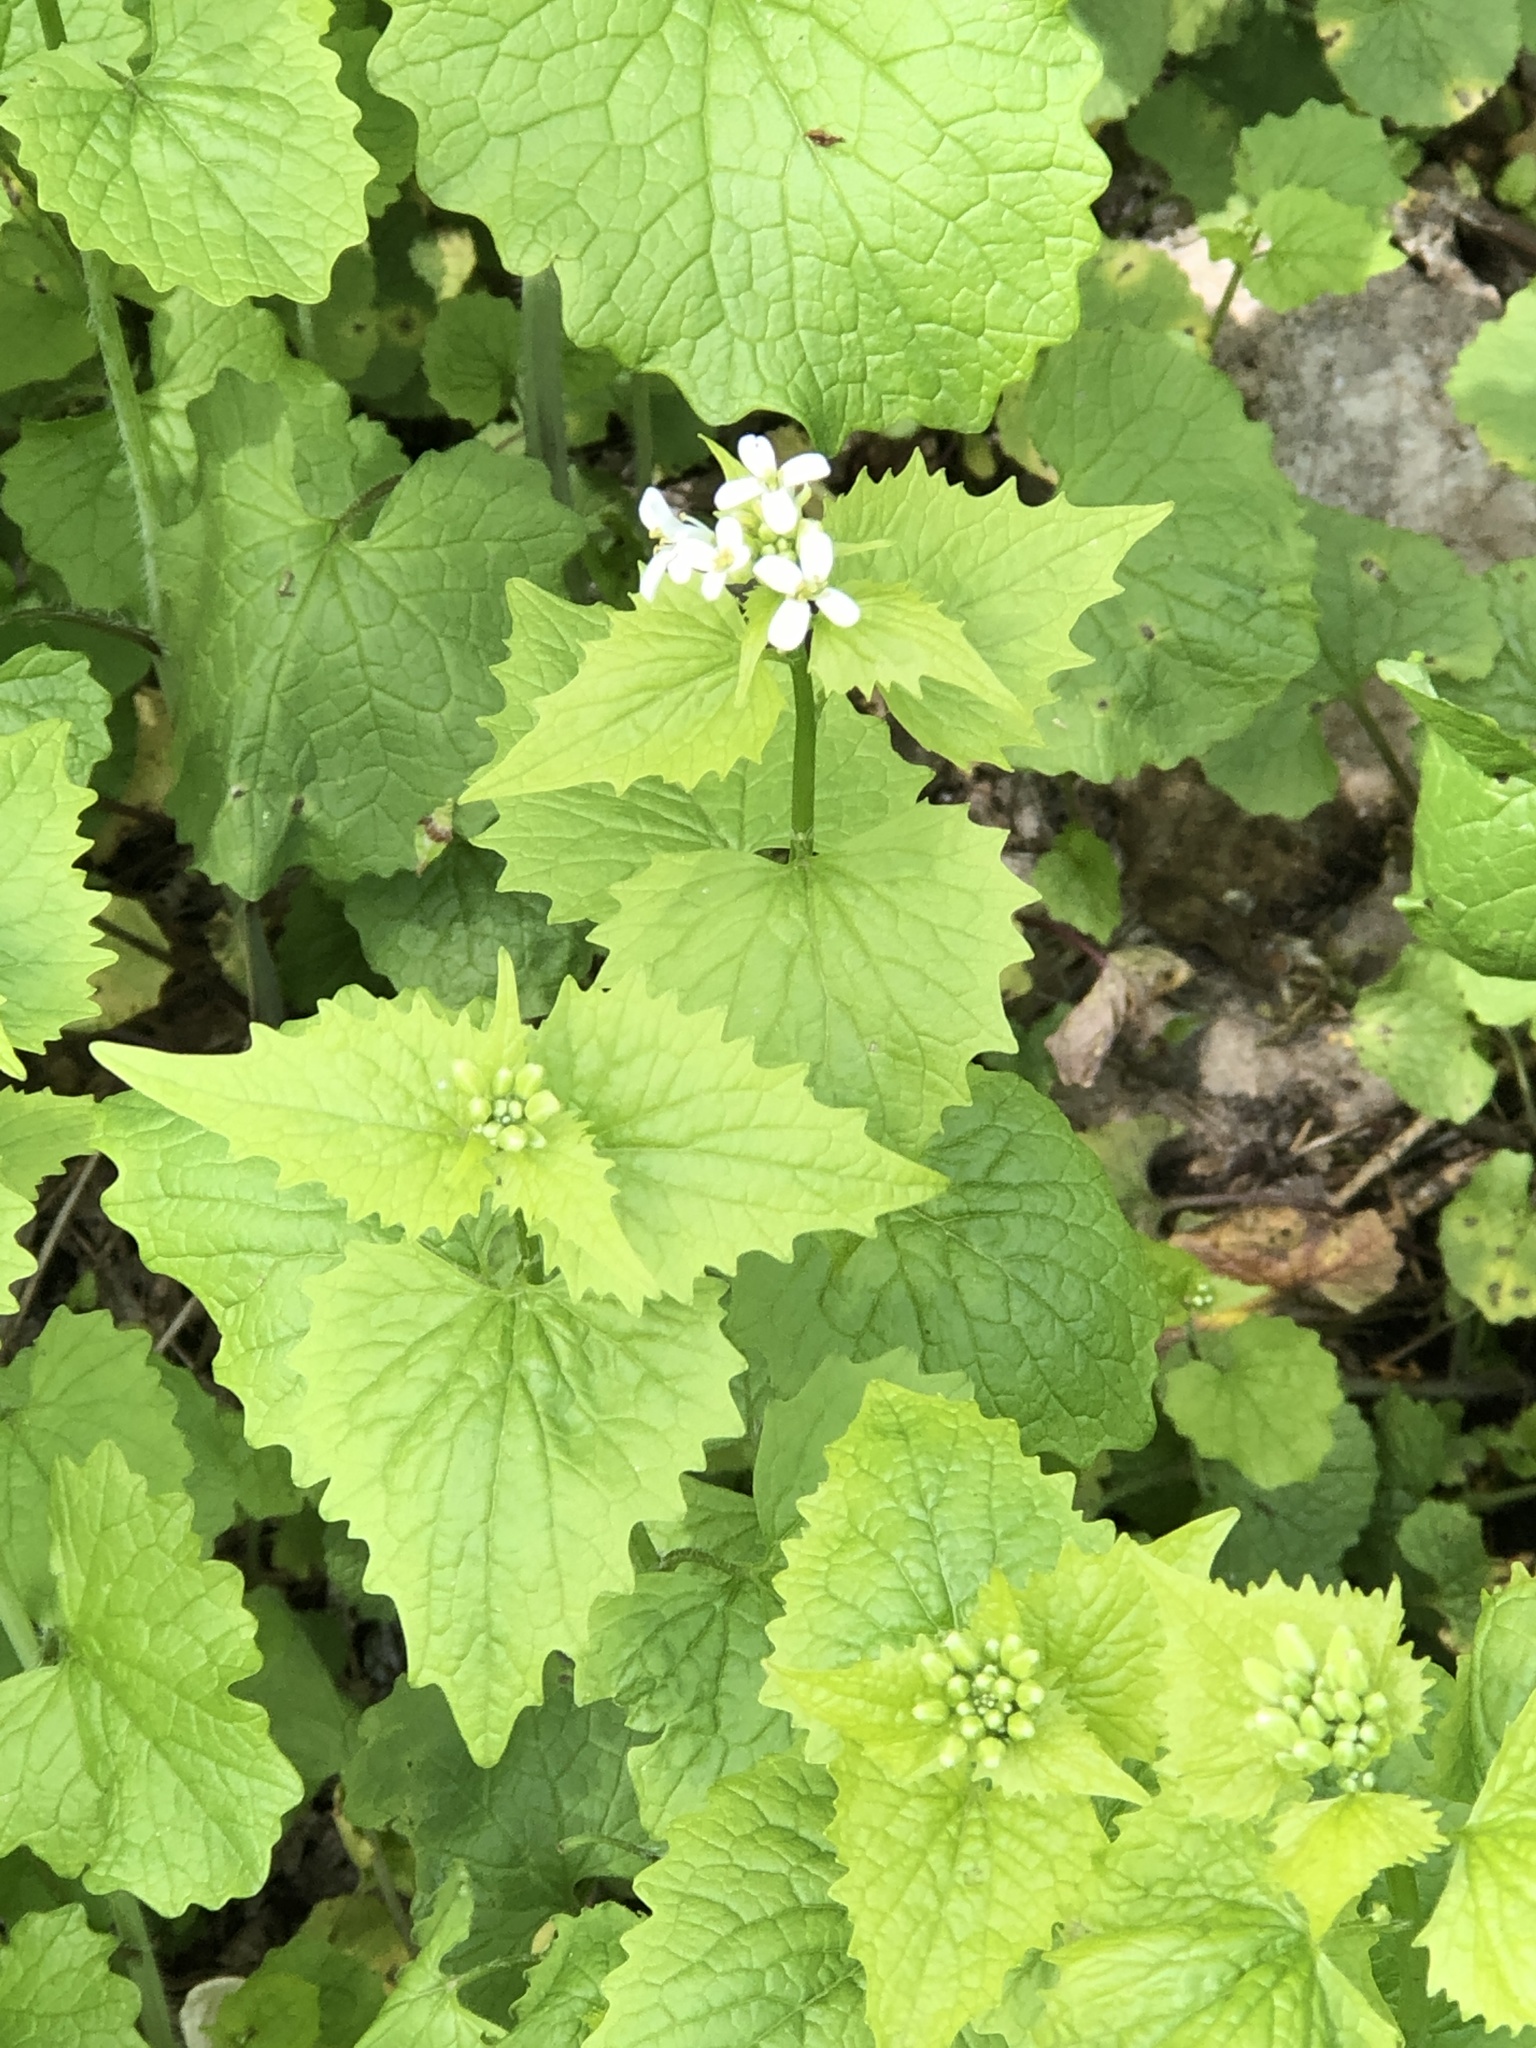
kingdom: Plantae
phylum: Tracheophyta
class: Magnoliopsida
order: Brassicales
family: Brassicaceae
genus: Alliaria
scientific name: Alliaria petiolata
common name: Garlic mustard
